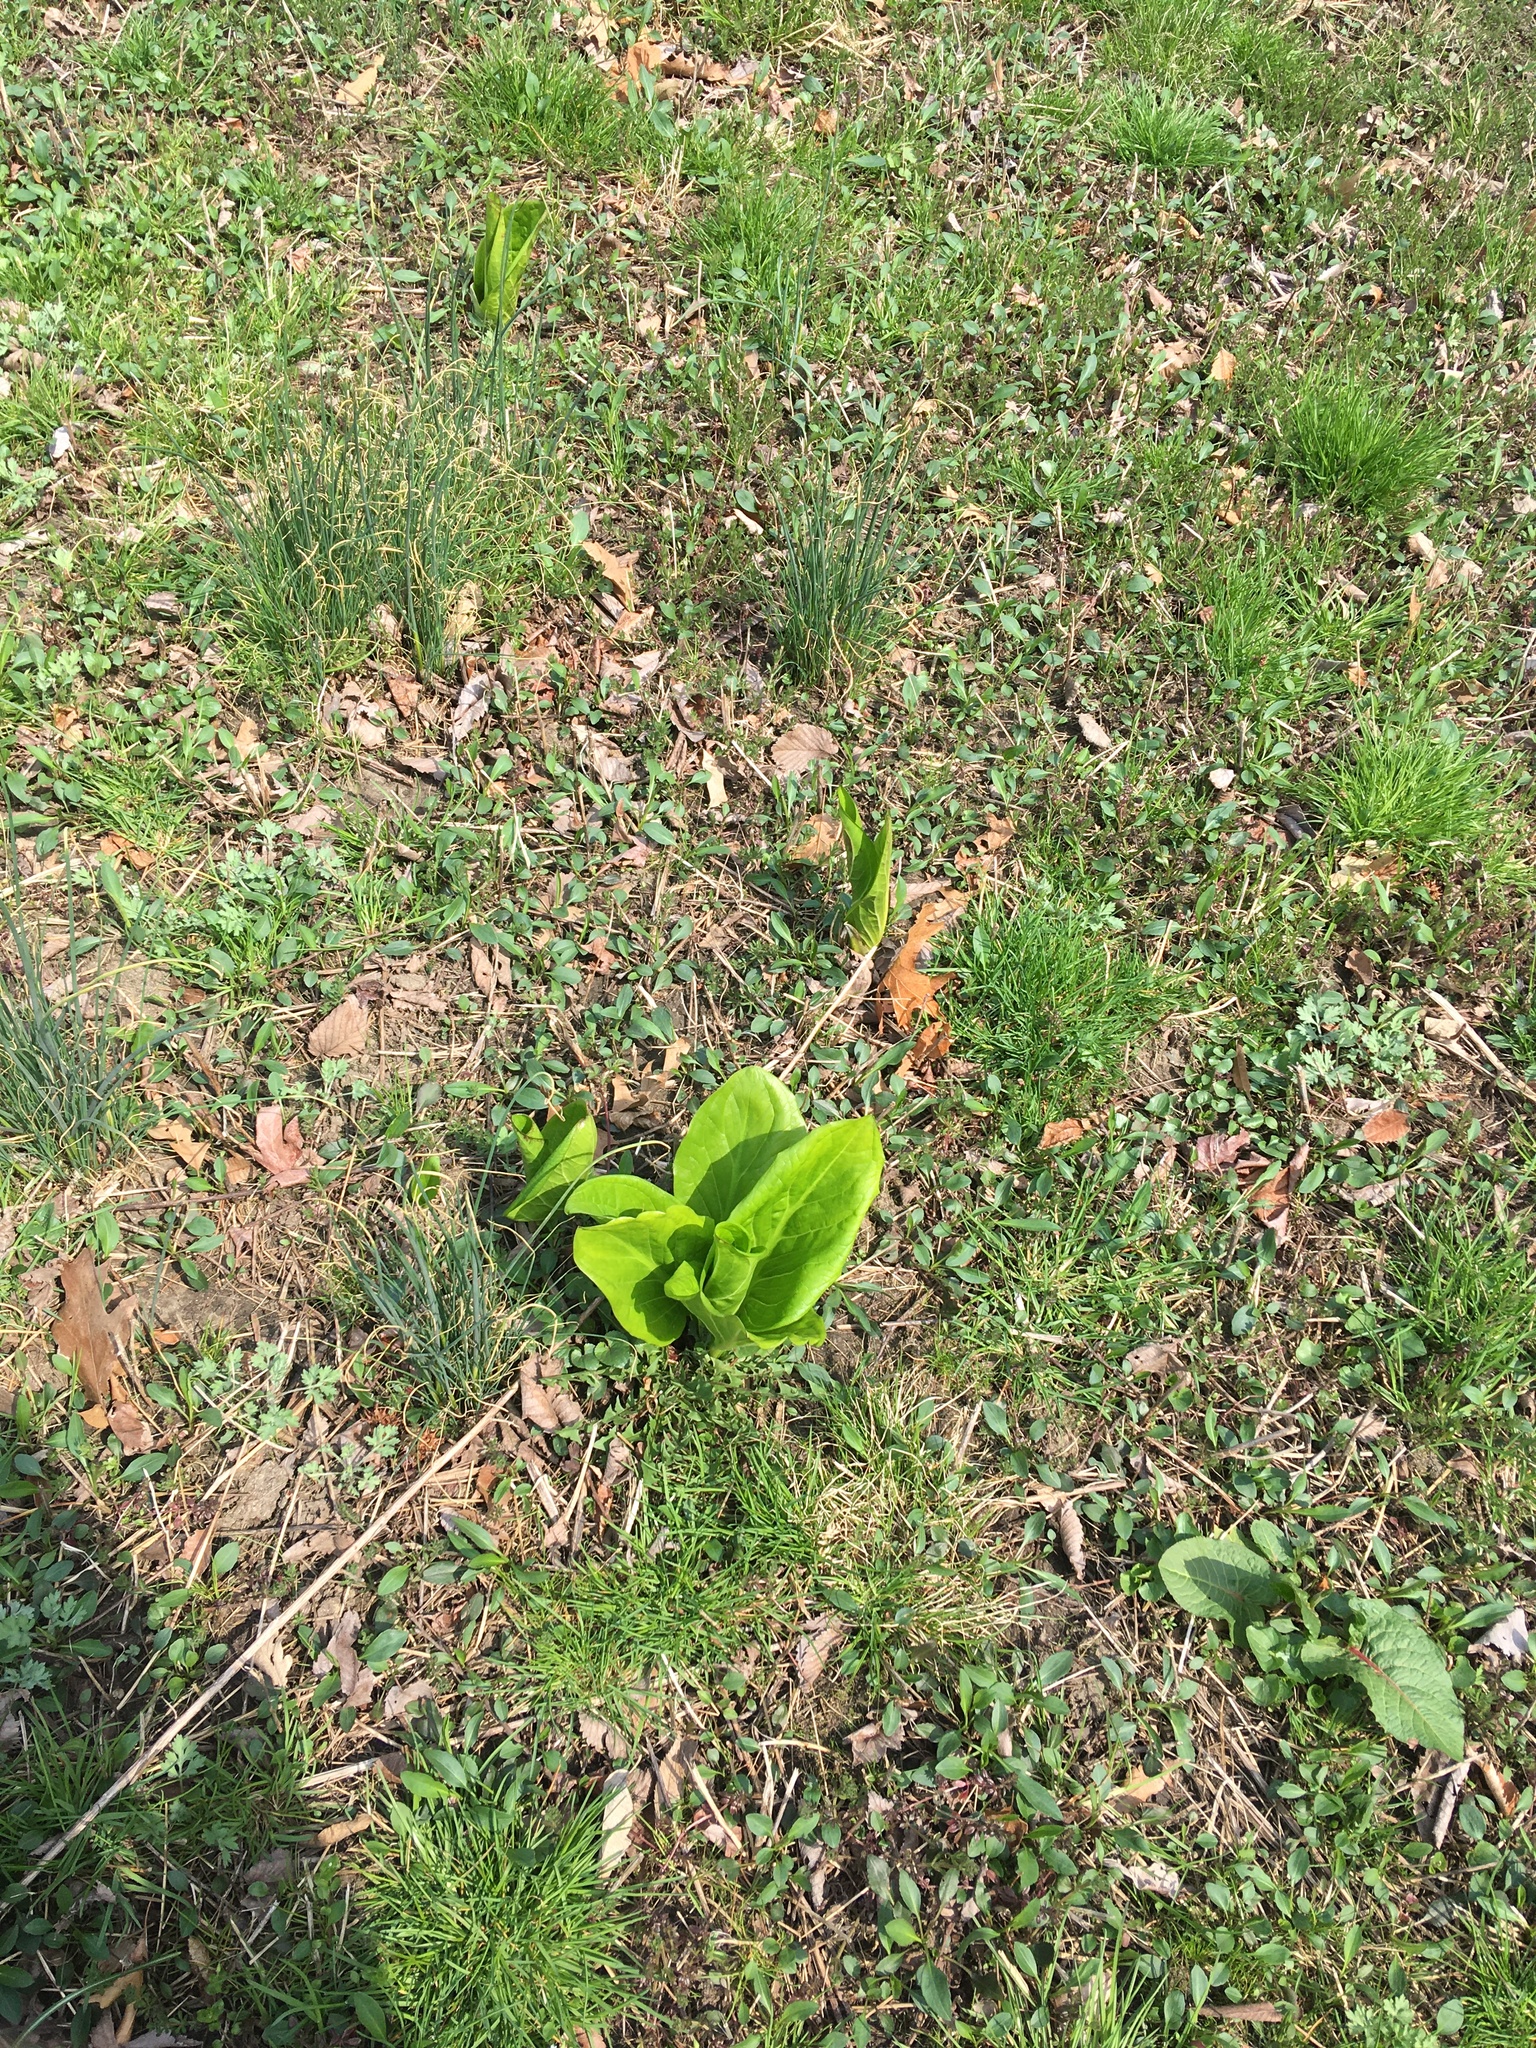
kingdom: Plantae
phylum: Tracheophyta
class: Liliopsida
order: Alismatales
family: Araceae
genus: Symplocarpus
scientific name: Symplocarpus foetidus
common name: Eastern skunk cabbage
